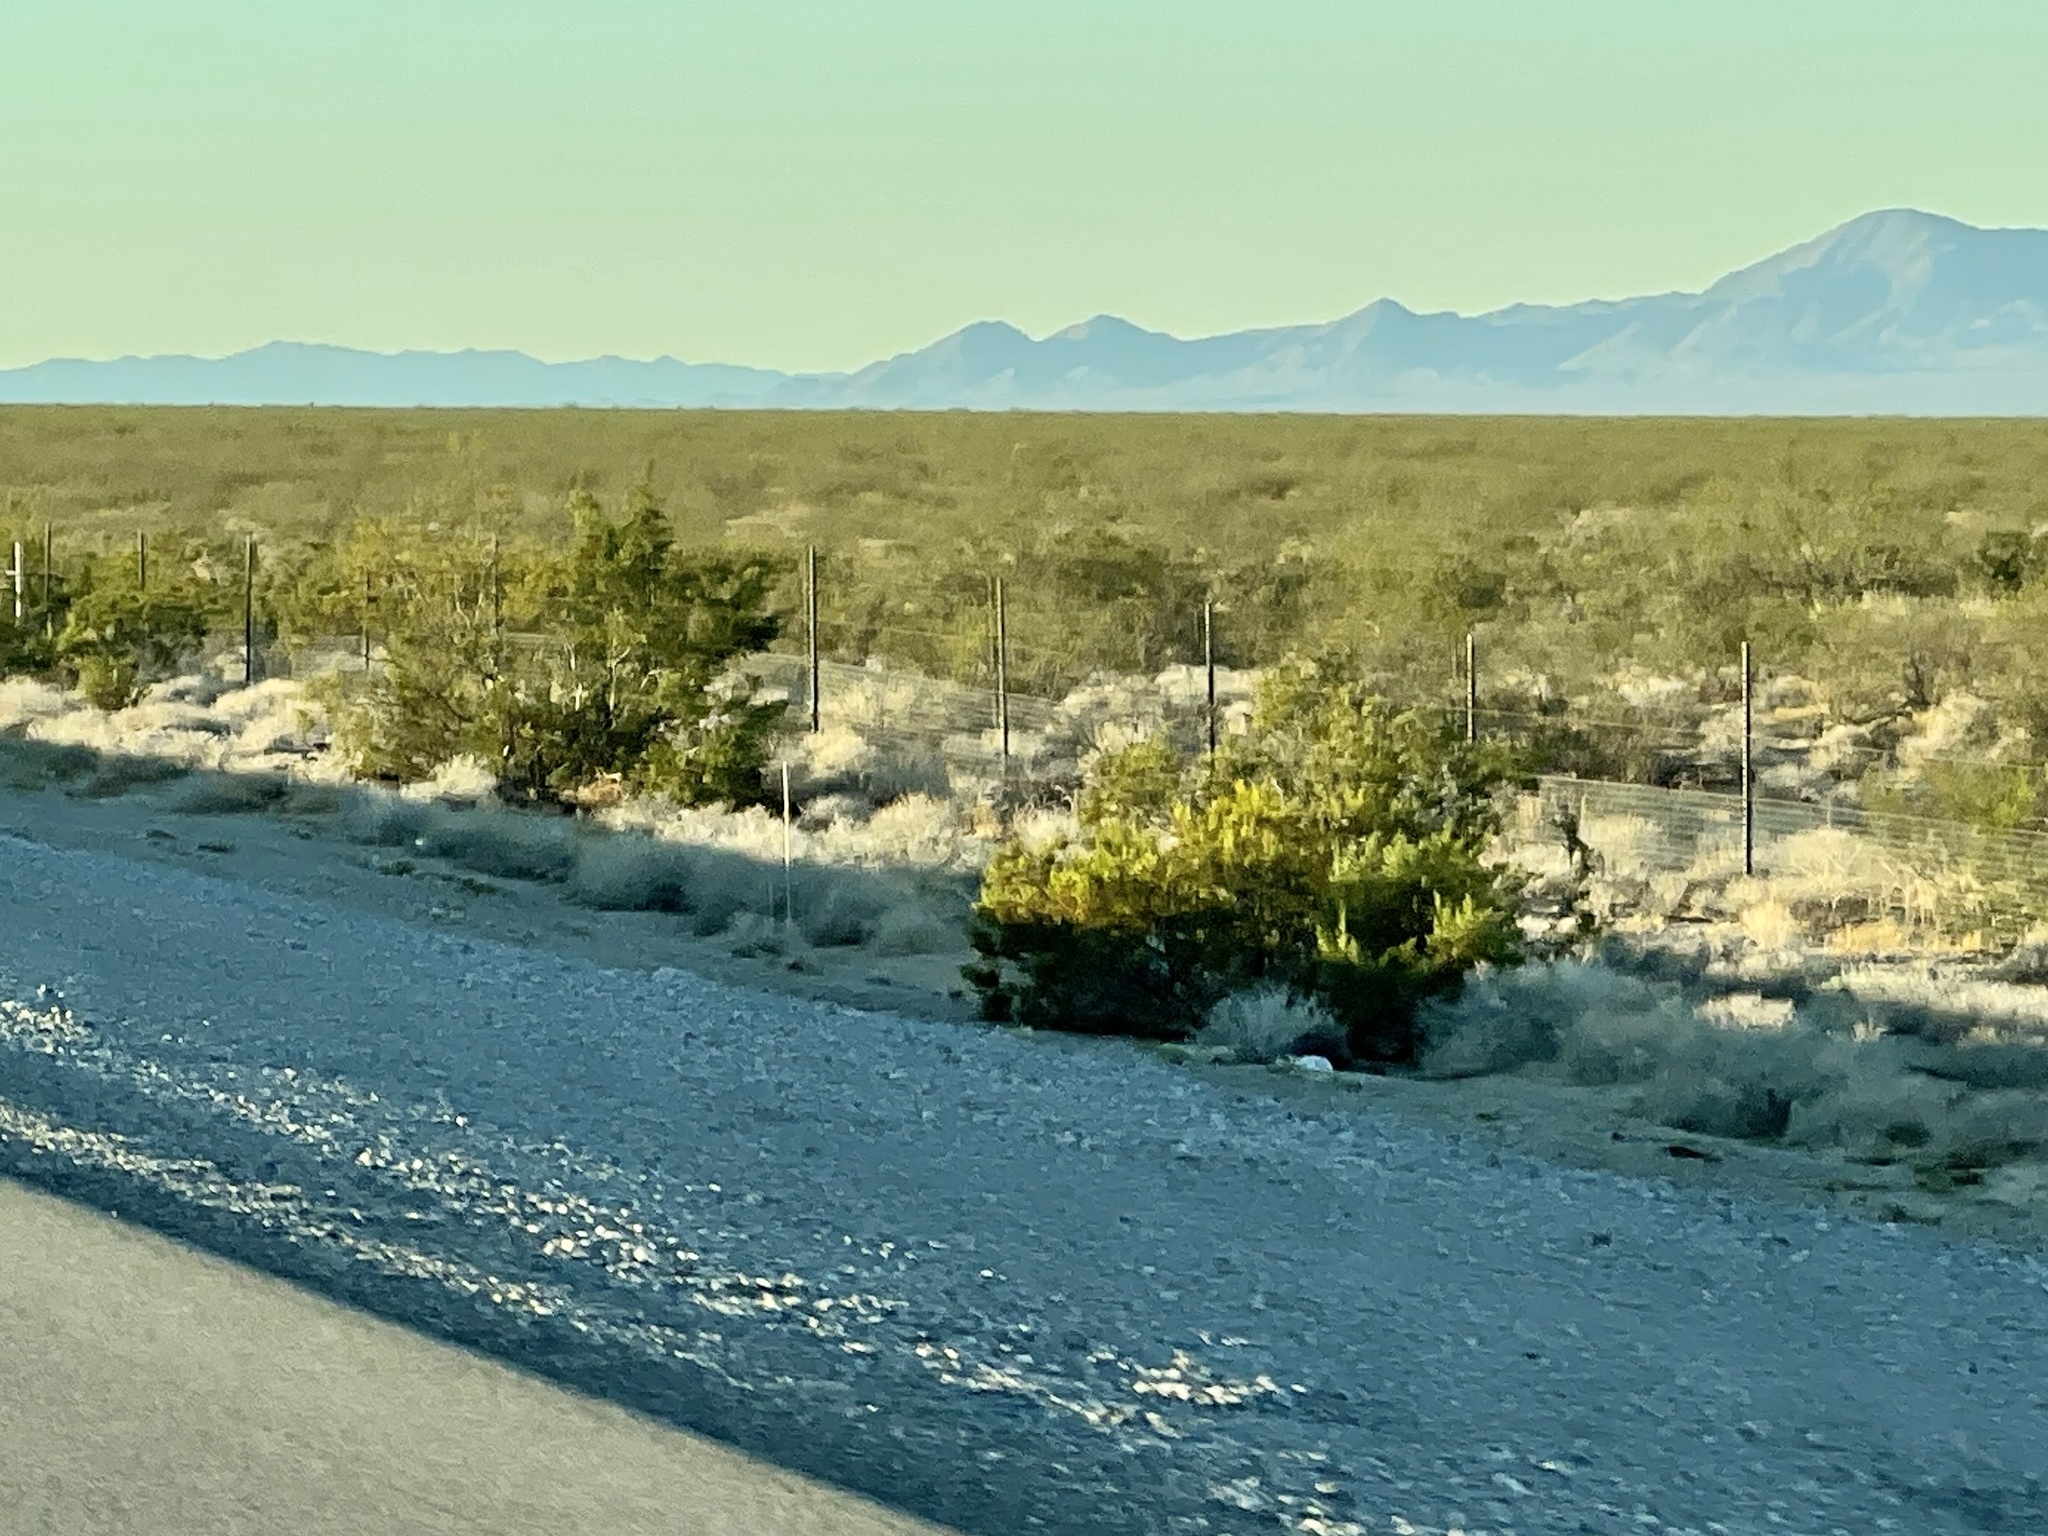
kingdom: Plantae
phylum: Tracheophyta
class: Magnoliopsida
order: Zygophyllales
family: Zygophyllaceae
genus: Larrea
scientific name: Larrea tridentata
